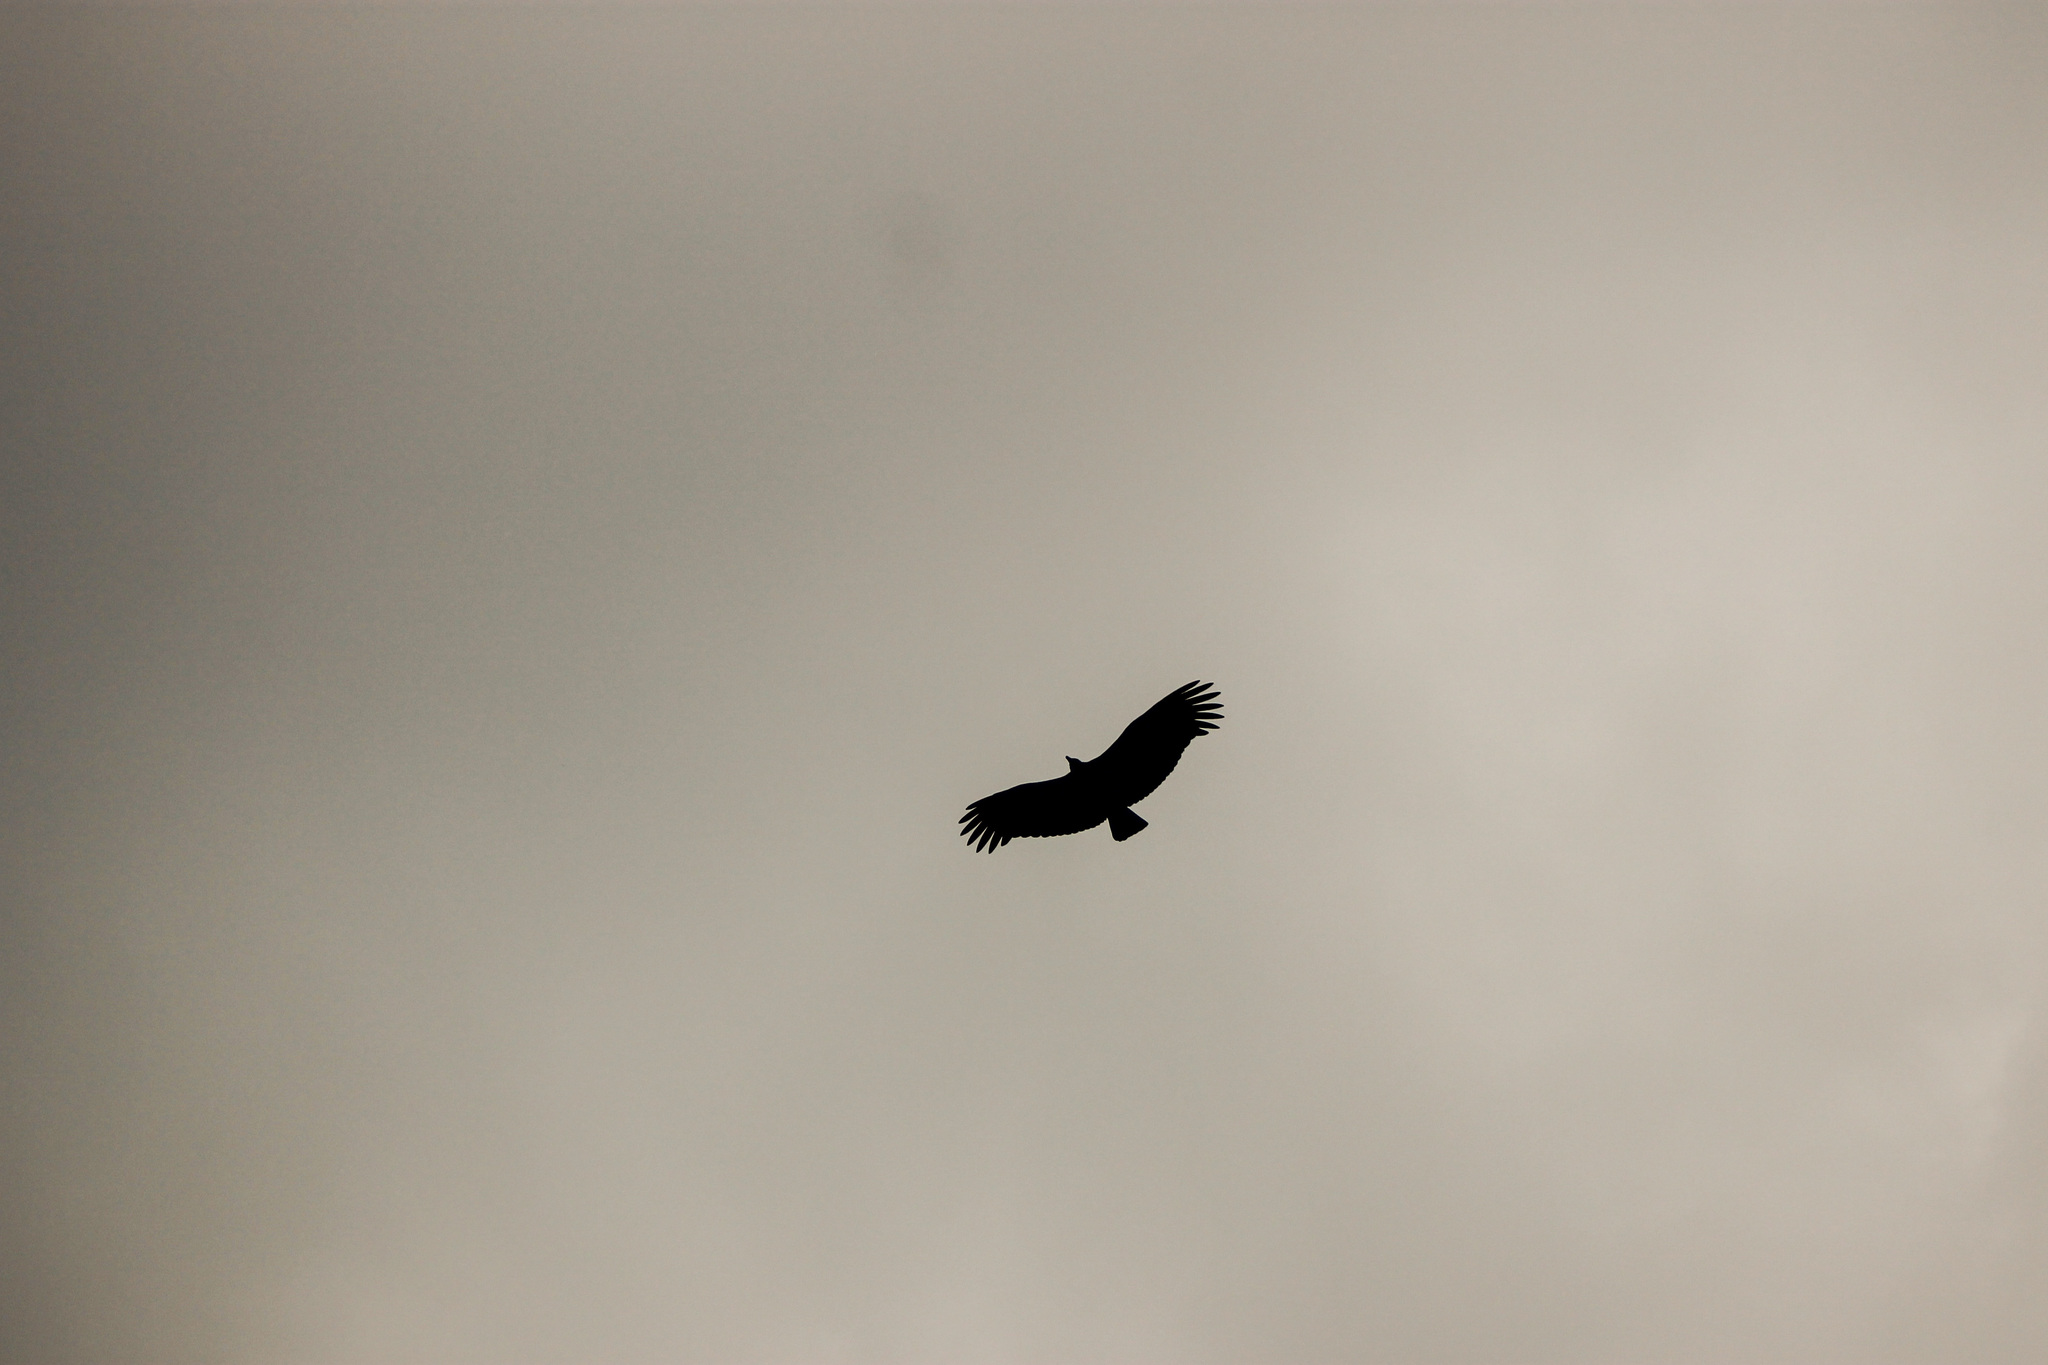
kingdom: Animalia
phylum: Chordata
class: Aves
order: Accipitriformes
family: Cathartidae
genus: Coragyps
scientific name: Coragyps atratus
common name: Black vulture
